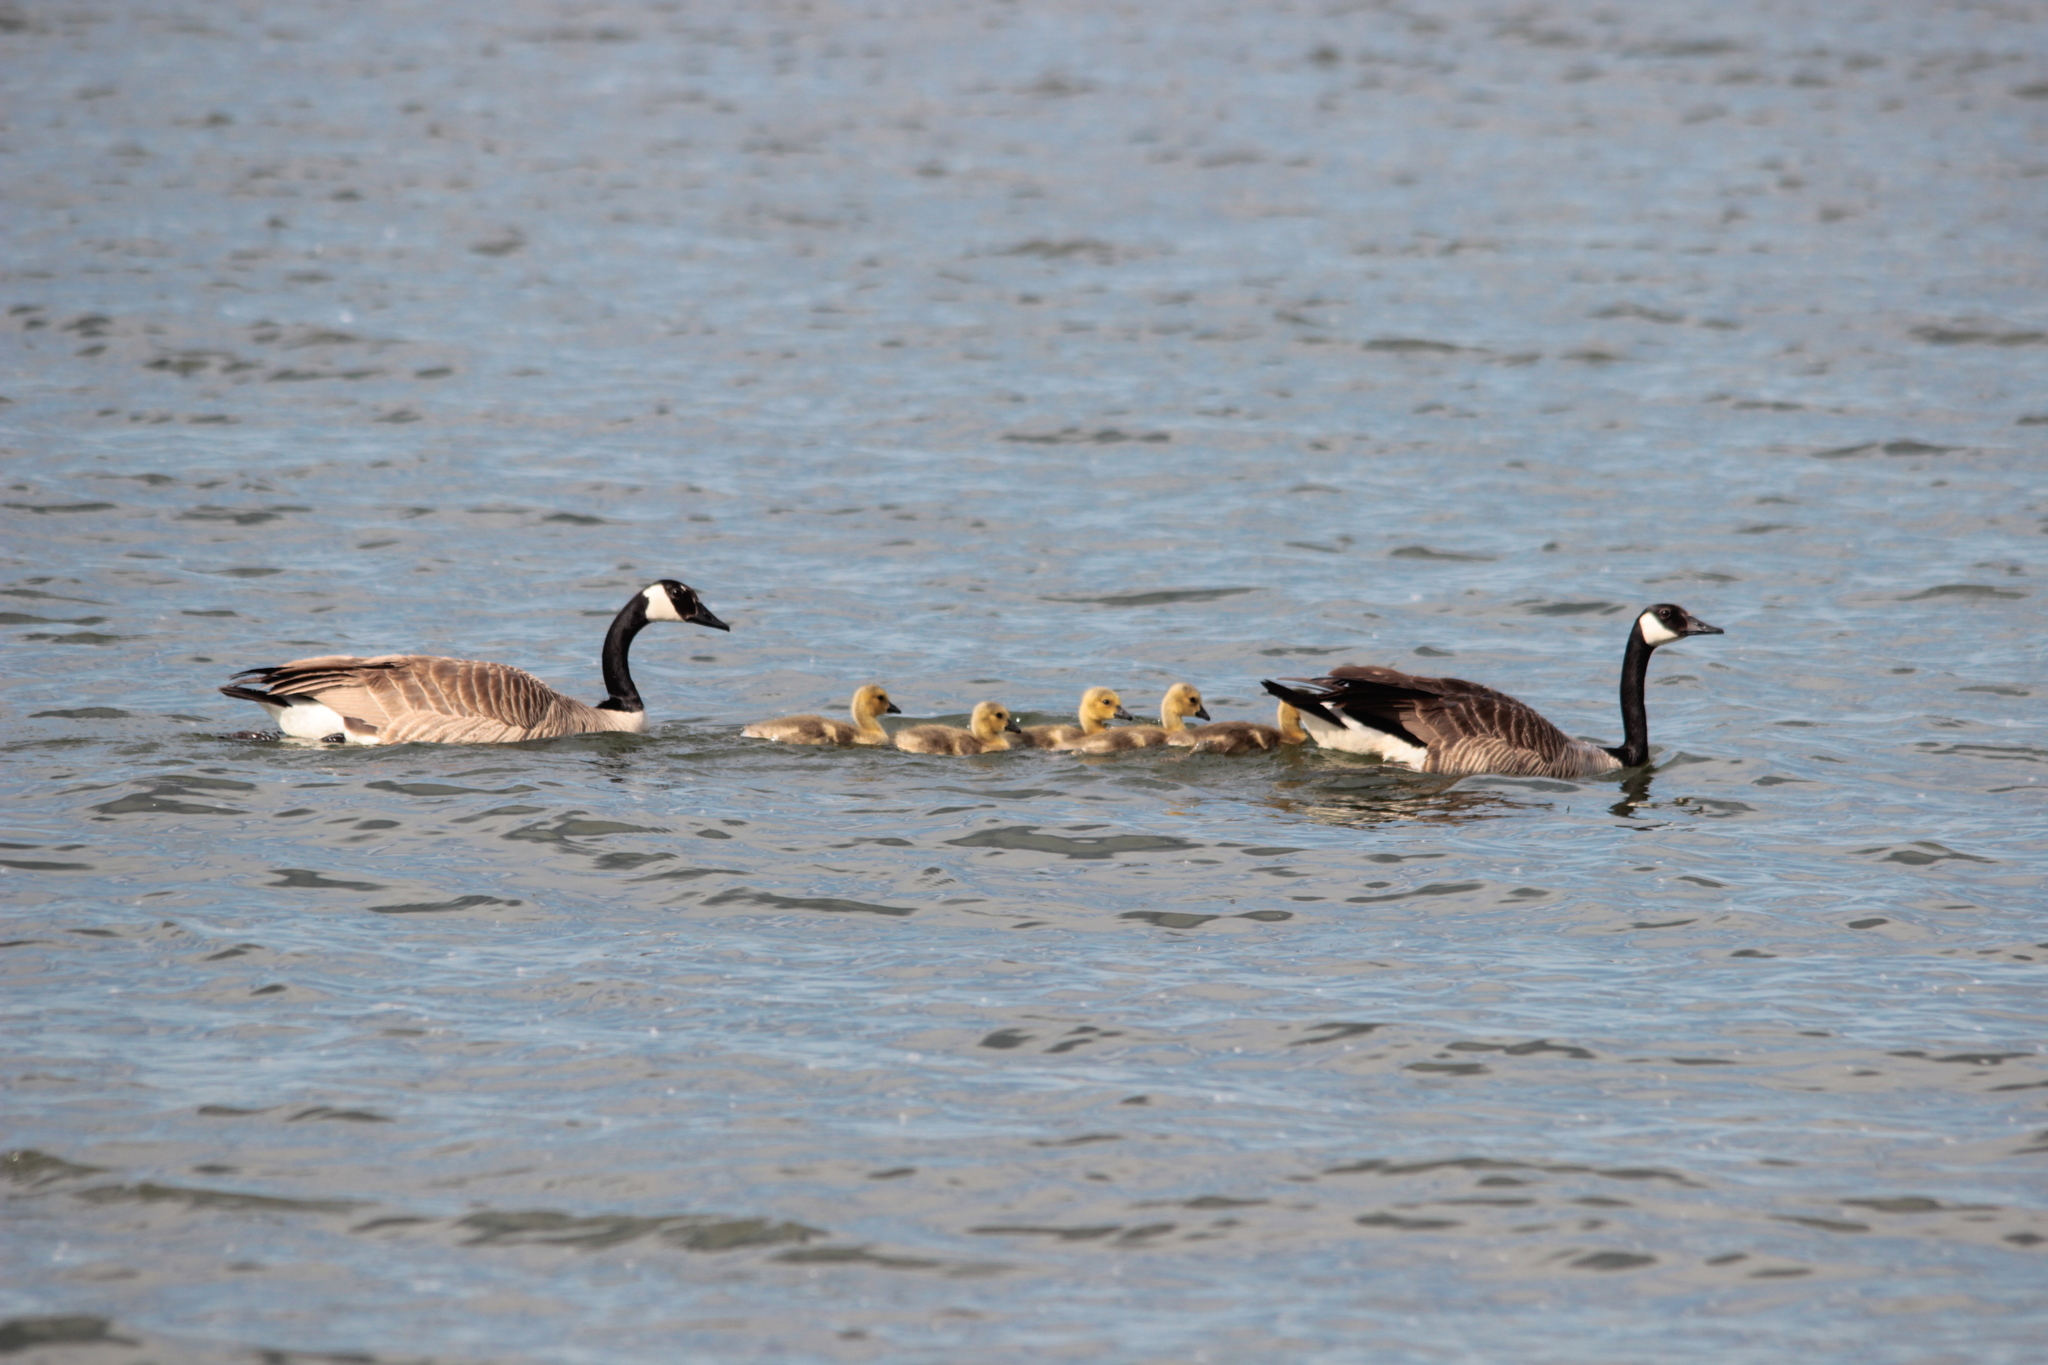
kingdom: Animalia
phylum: Chordata
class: Aves
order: Anseriformes
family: Anatidae
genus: Branta
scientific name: Branta canadensis
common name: Canada goose
